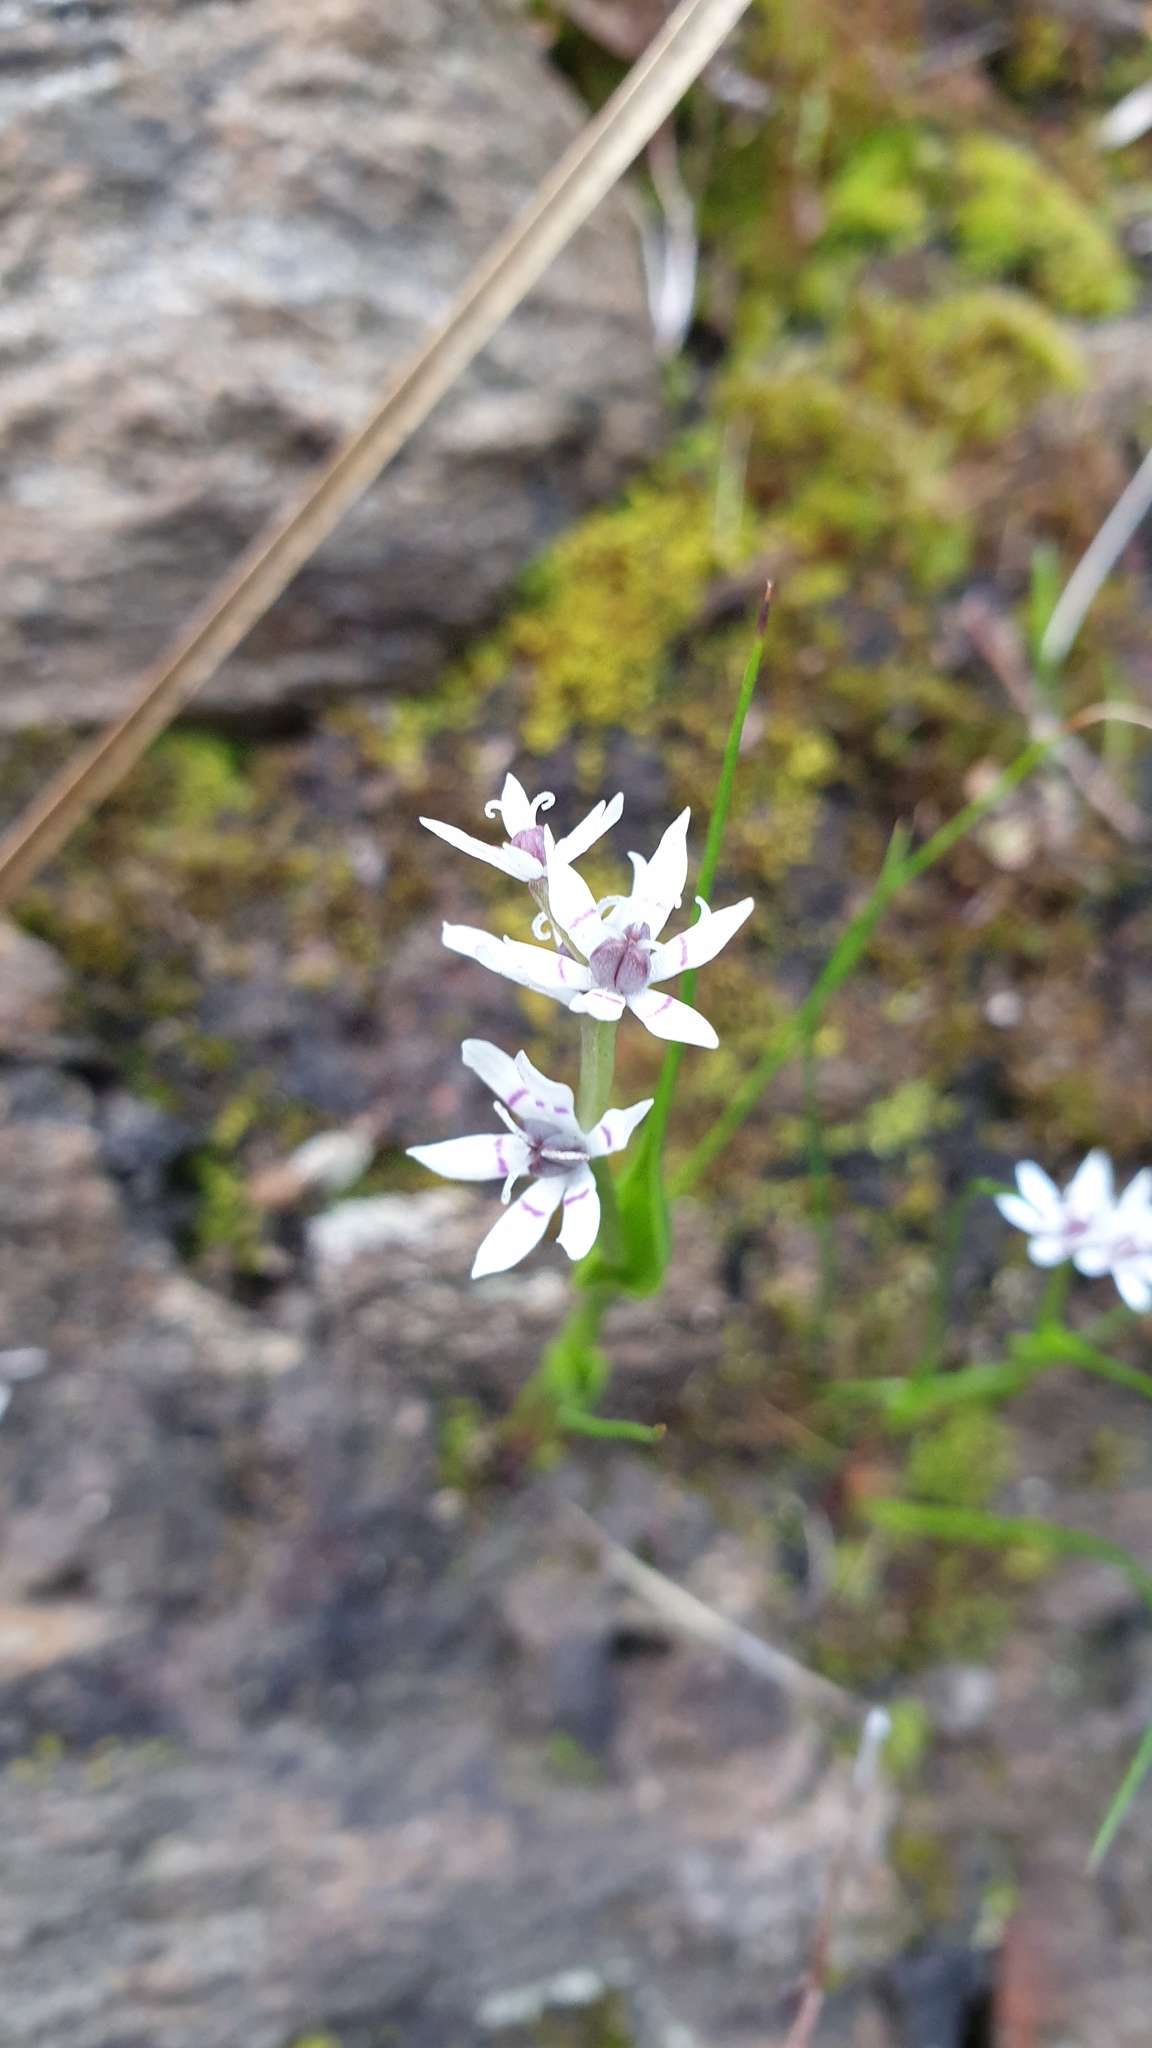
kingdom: Plantae
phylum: Tracheophyta
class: Liliopsida
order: Liliales
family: Colchicaceae
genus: Wurmbea
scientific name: Wurmbea dioica
